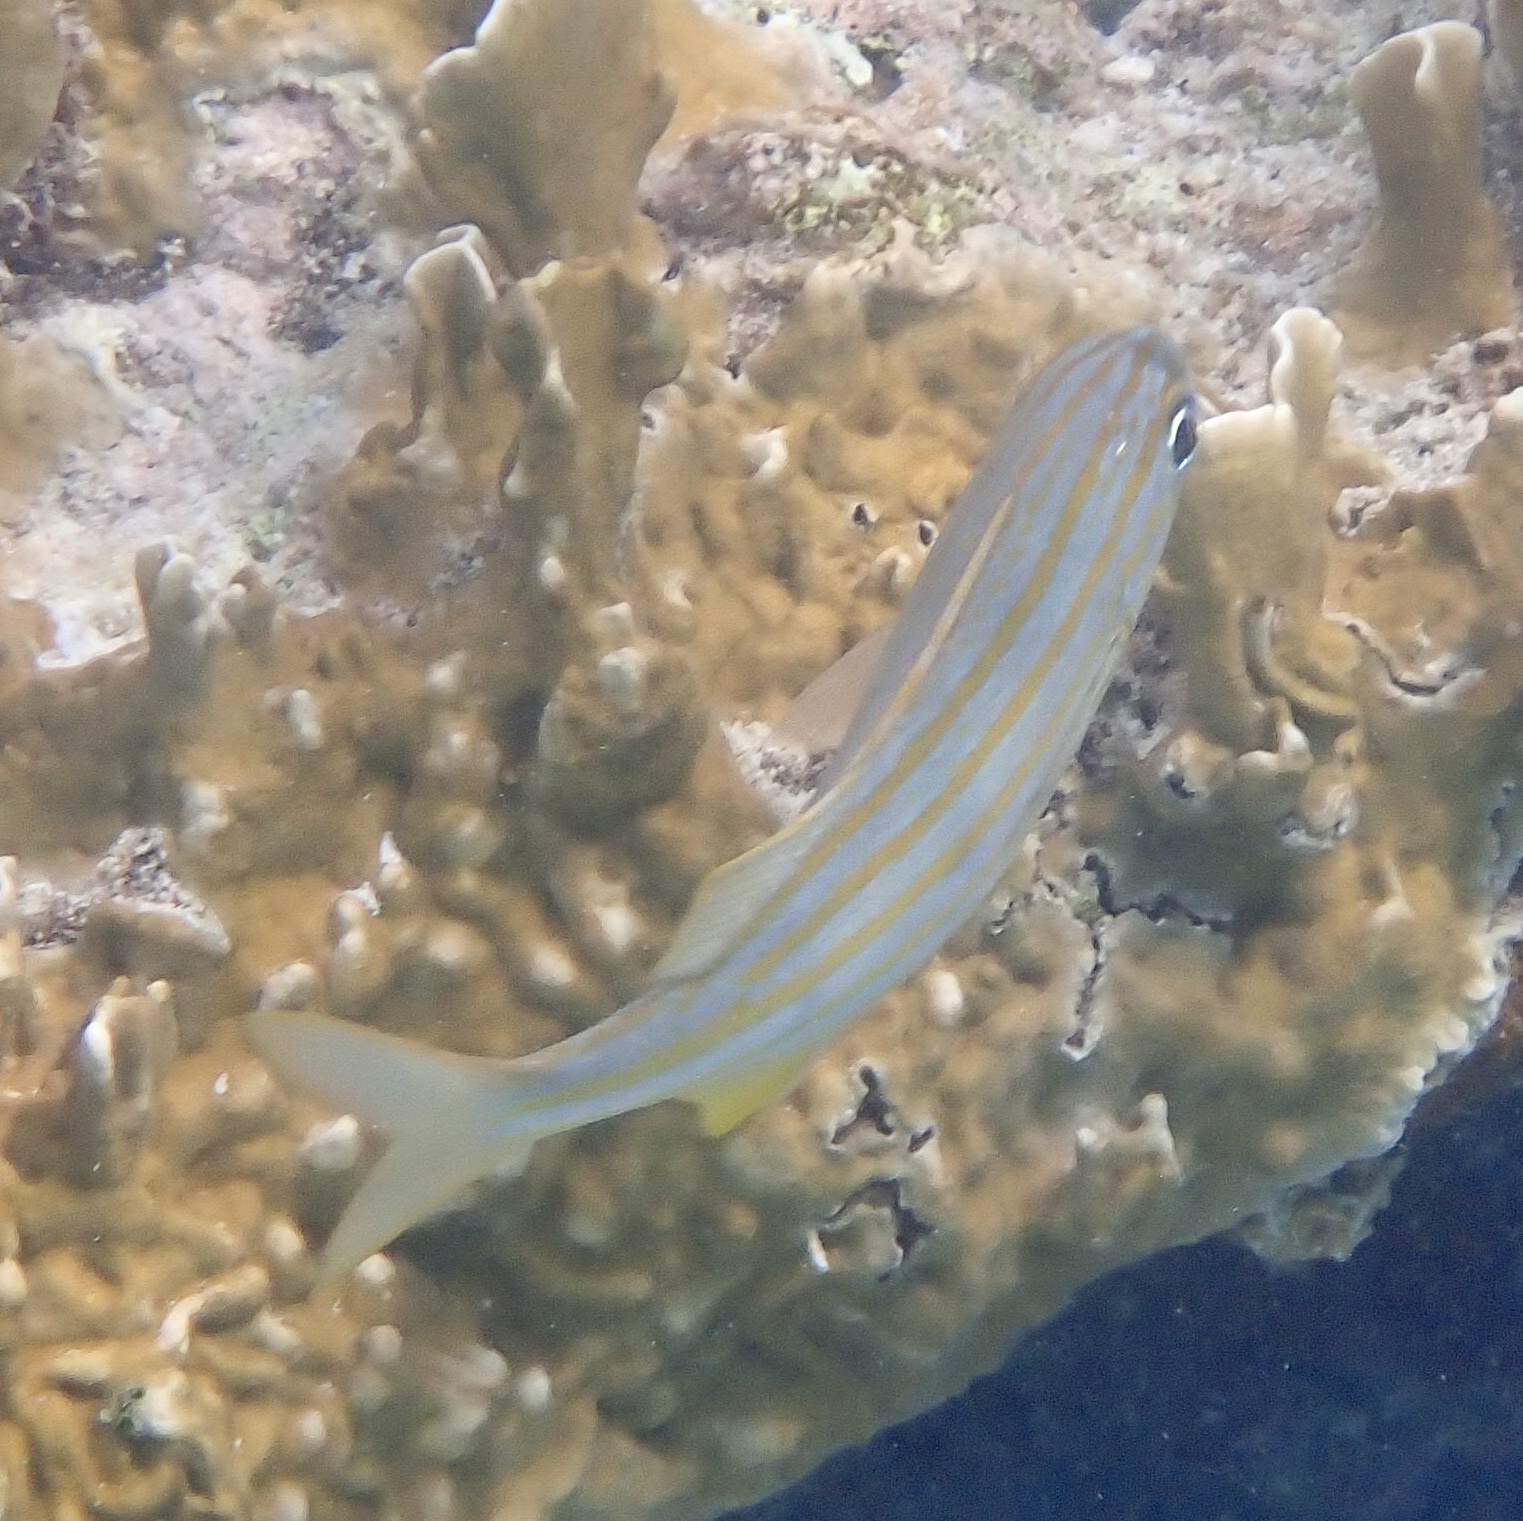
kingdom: Animalia
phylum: Chordata
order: Perciformes
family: Haemulidae
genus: Haemulon
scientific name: Haemulon chrysargyreum
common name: Smallmouth grunt
